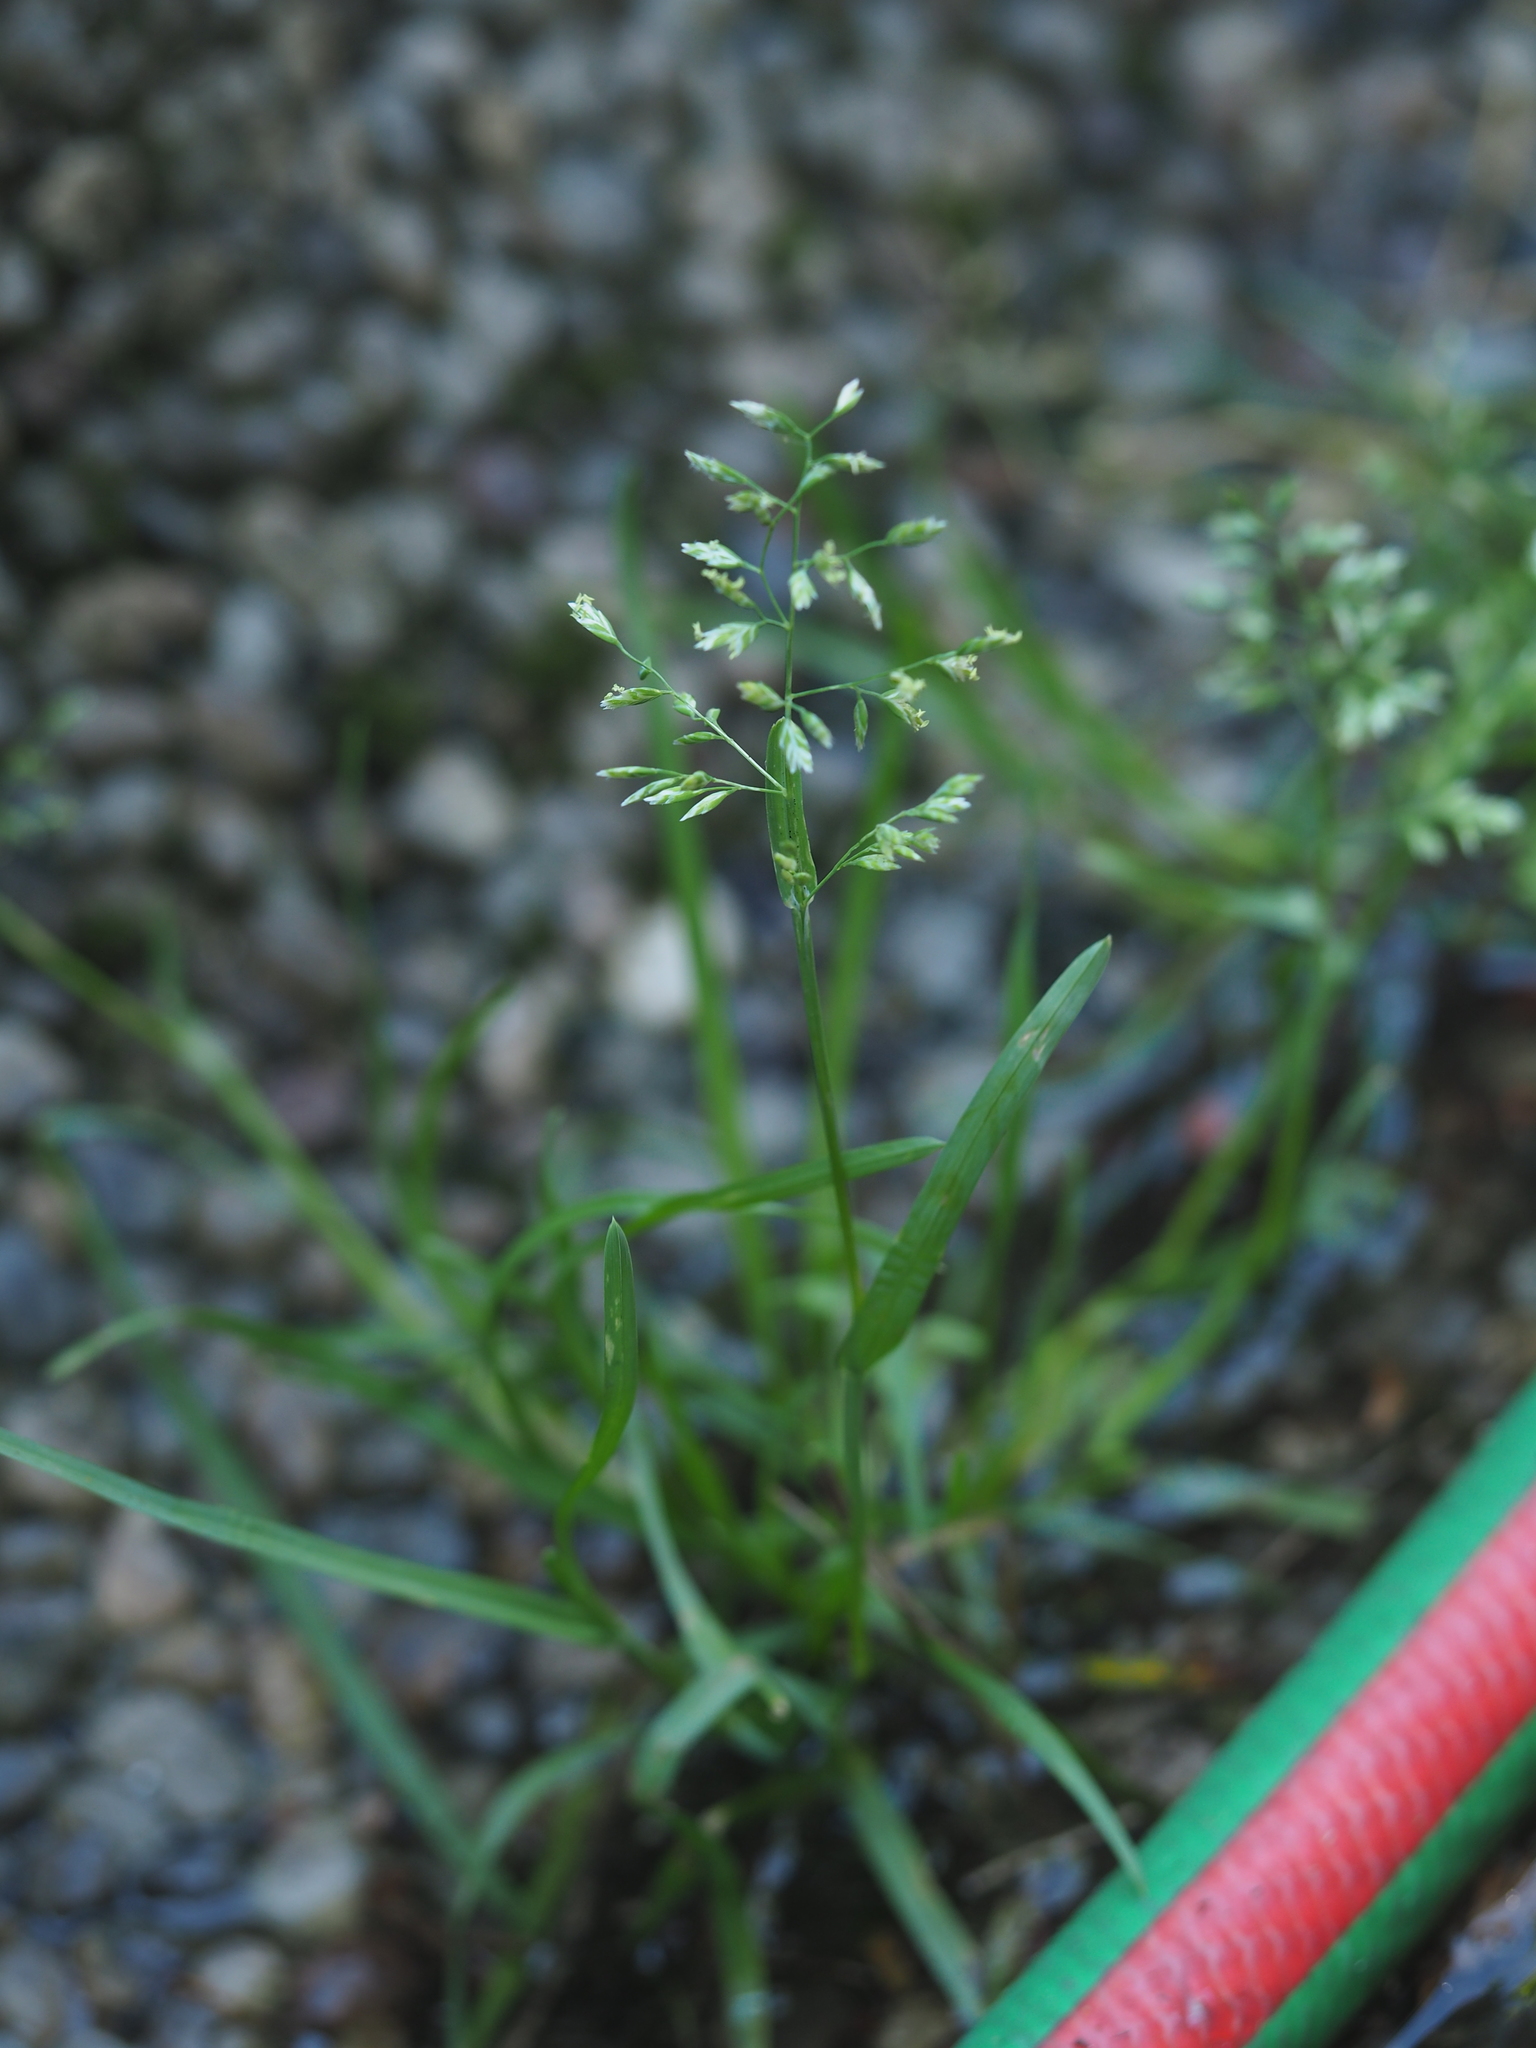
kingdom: Plantae
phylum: Tracheophyta
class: Liliopsida
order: Poales
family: Poaceae
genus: Poa
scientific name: Poa annua
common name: Annual bluegrass
